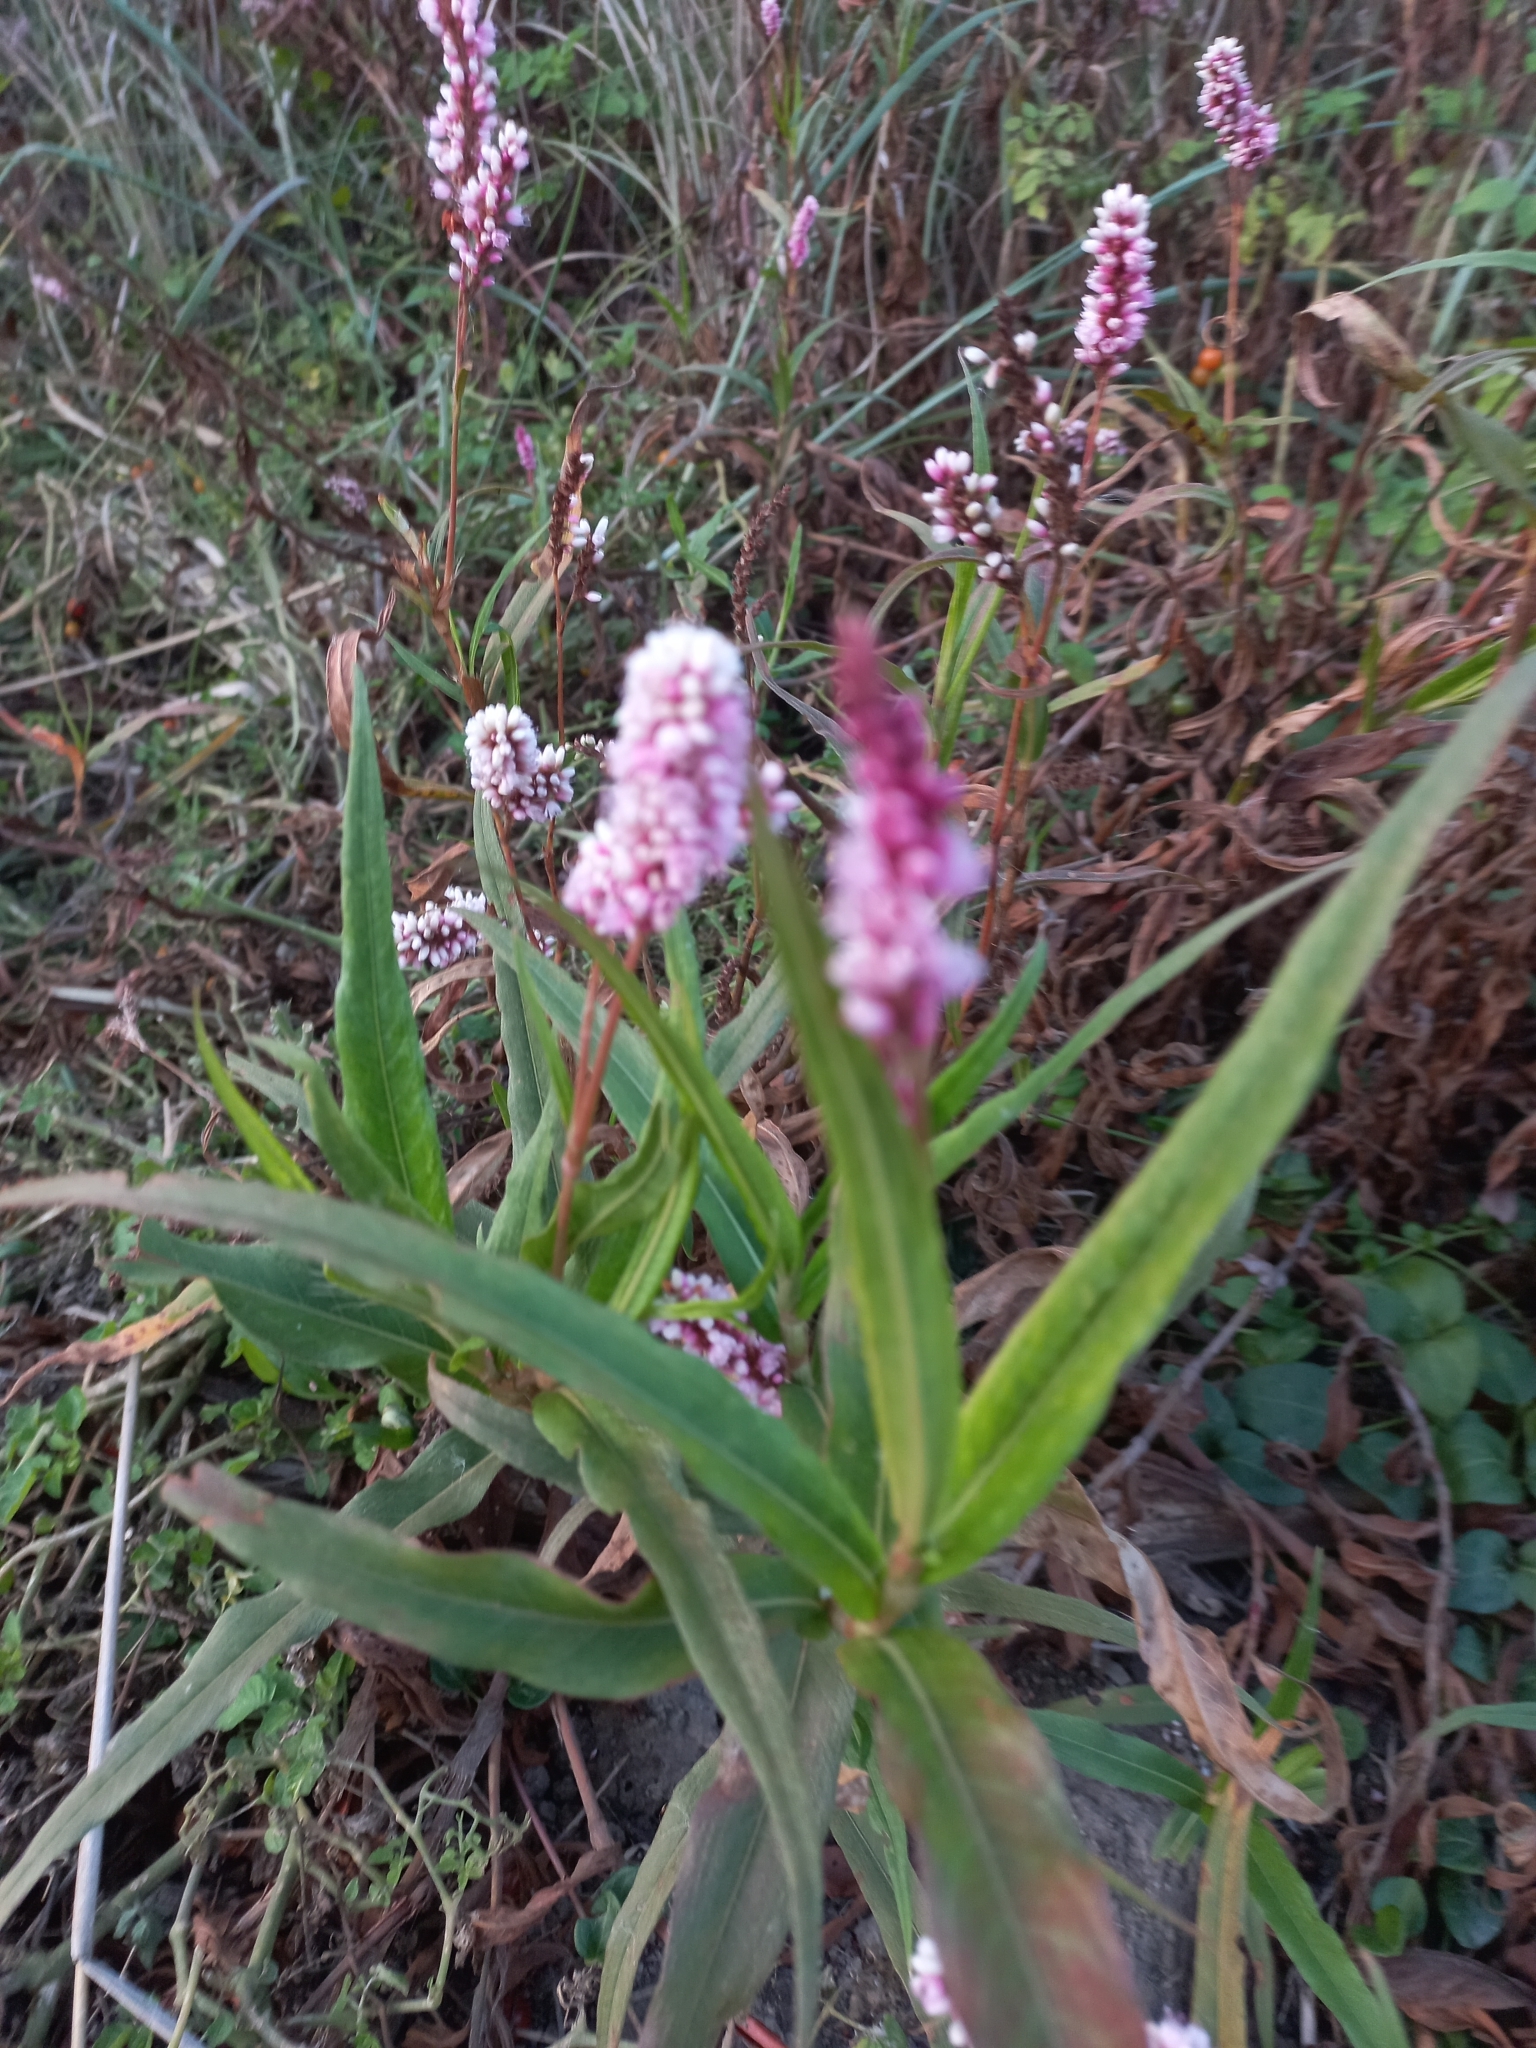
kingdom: Plantae
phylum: Tracheophyta
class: Magnoliopsida
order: Caryophyllales
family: Polygonaceae
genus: Persicaria
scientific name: Persicaria madagascariensis
